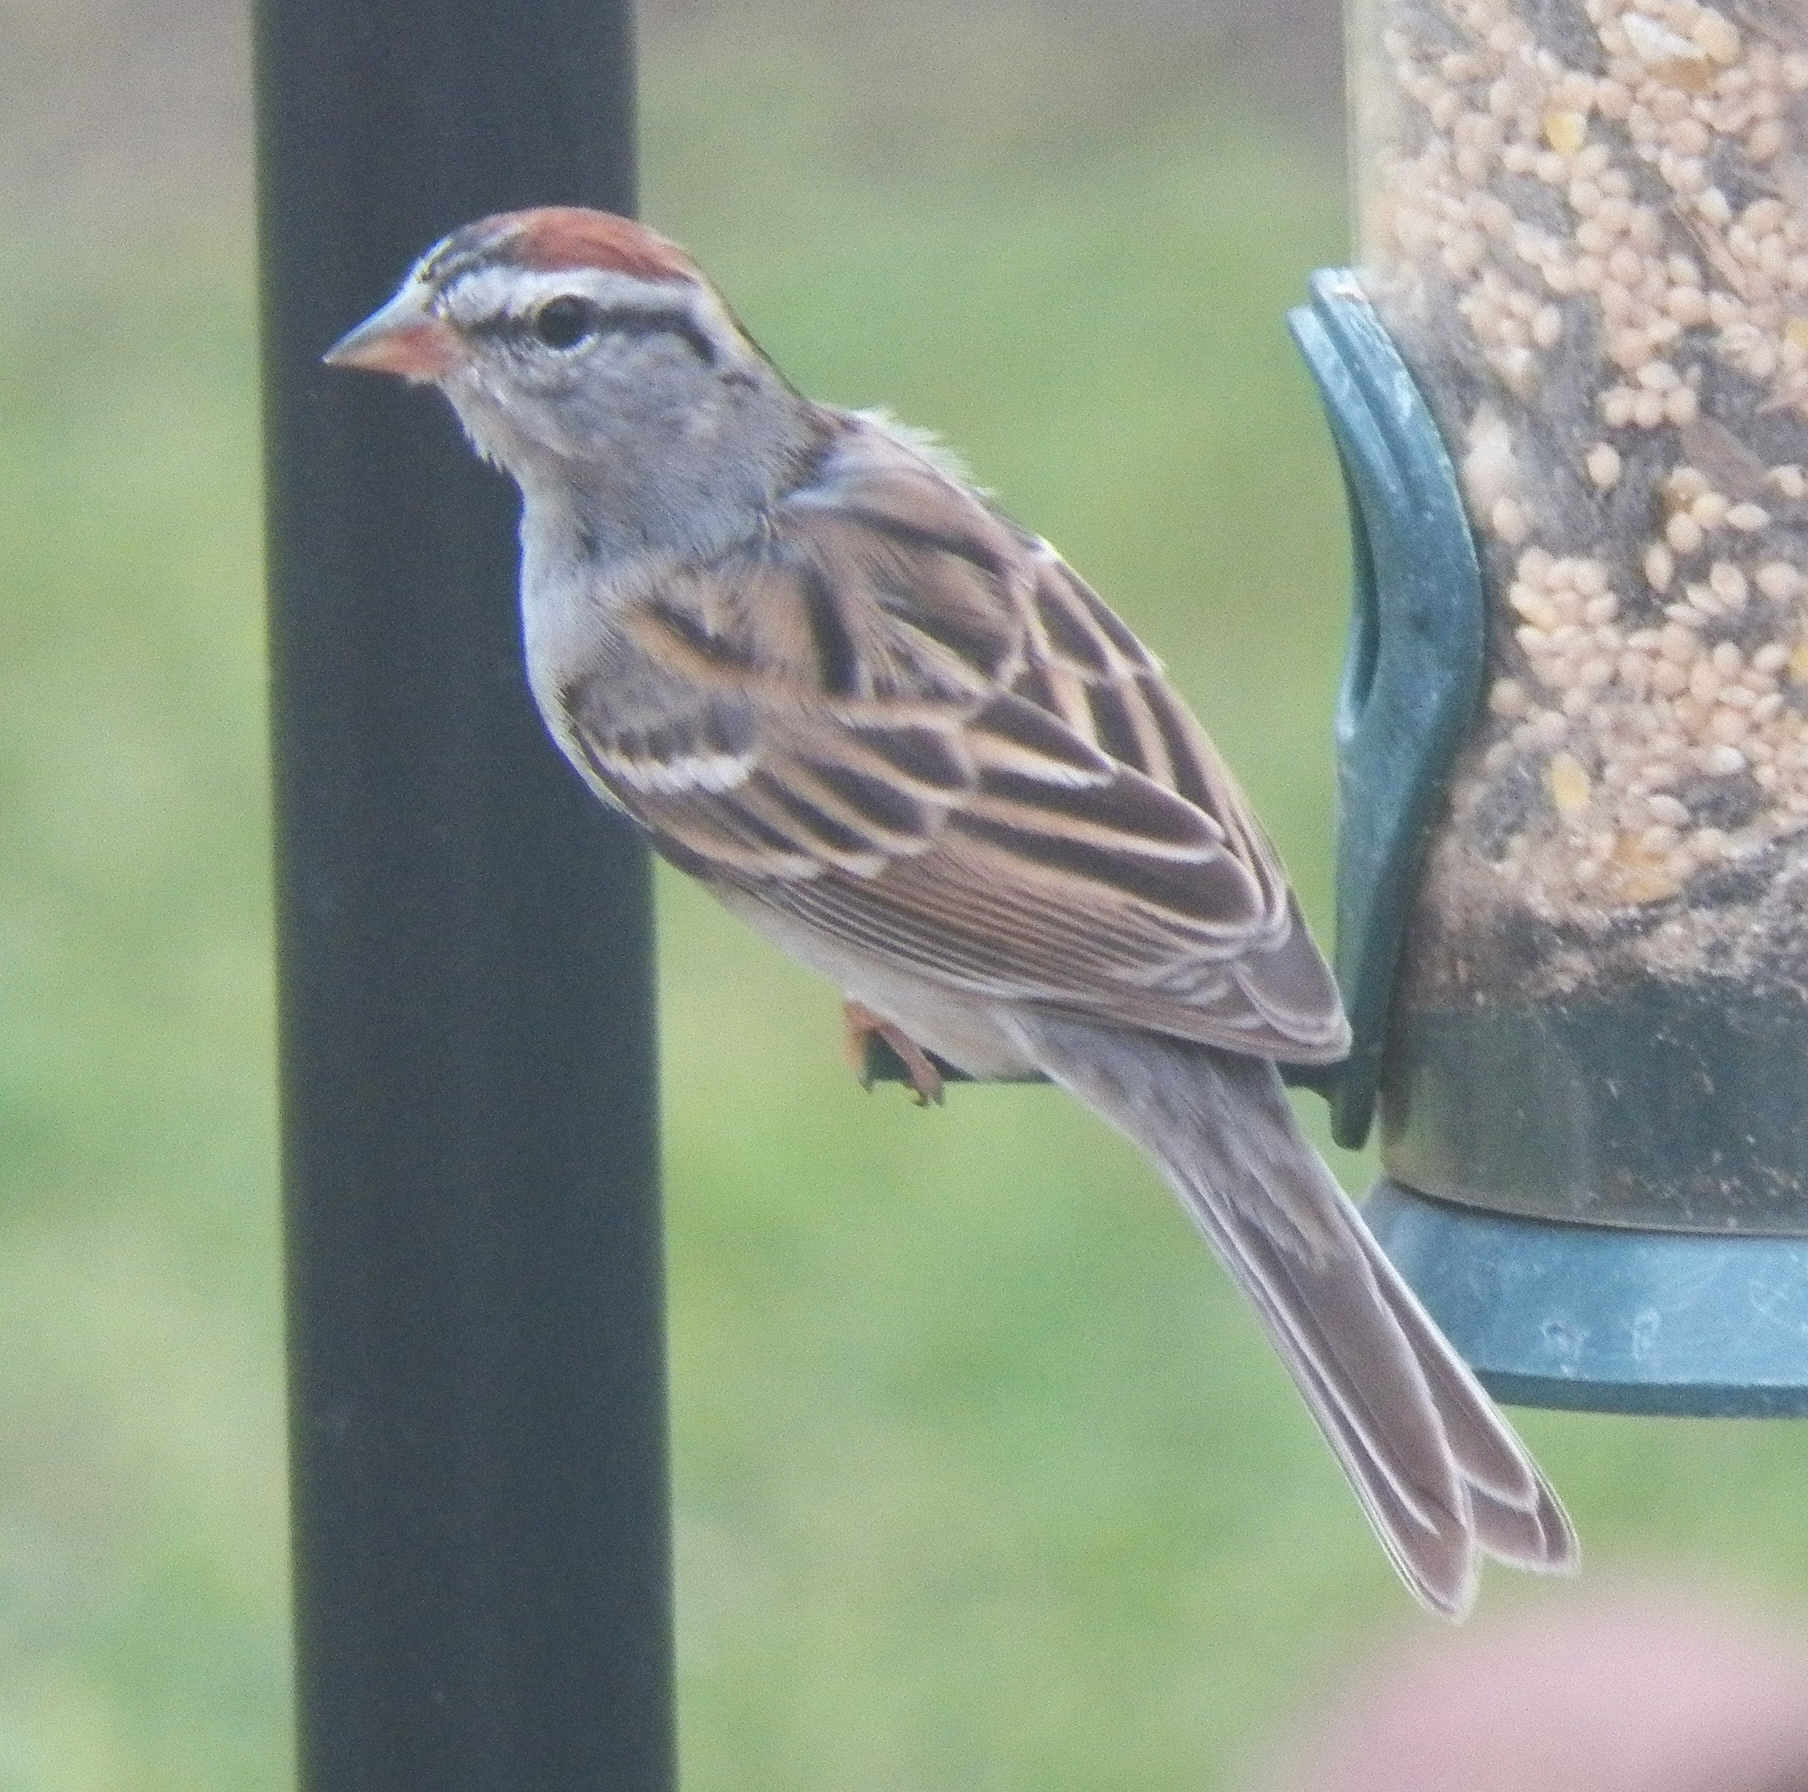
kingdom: Animalia
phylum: Chordata
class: Aves
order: Passeriformes
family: Passerellidae
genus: Spizella
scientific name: Spizella passerina
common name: Chipping sparrow
